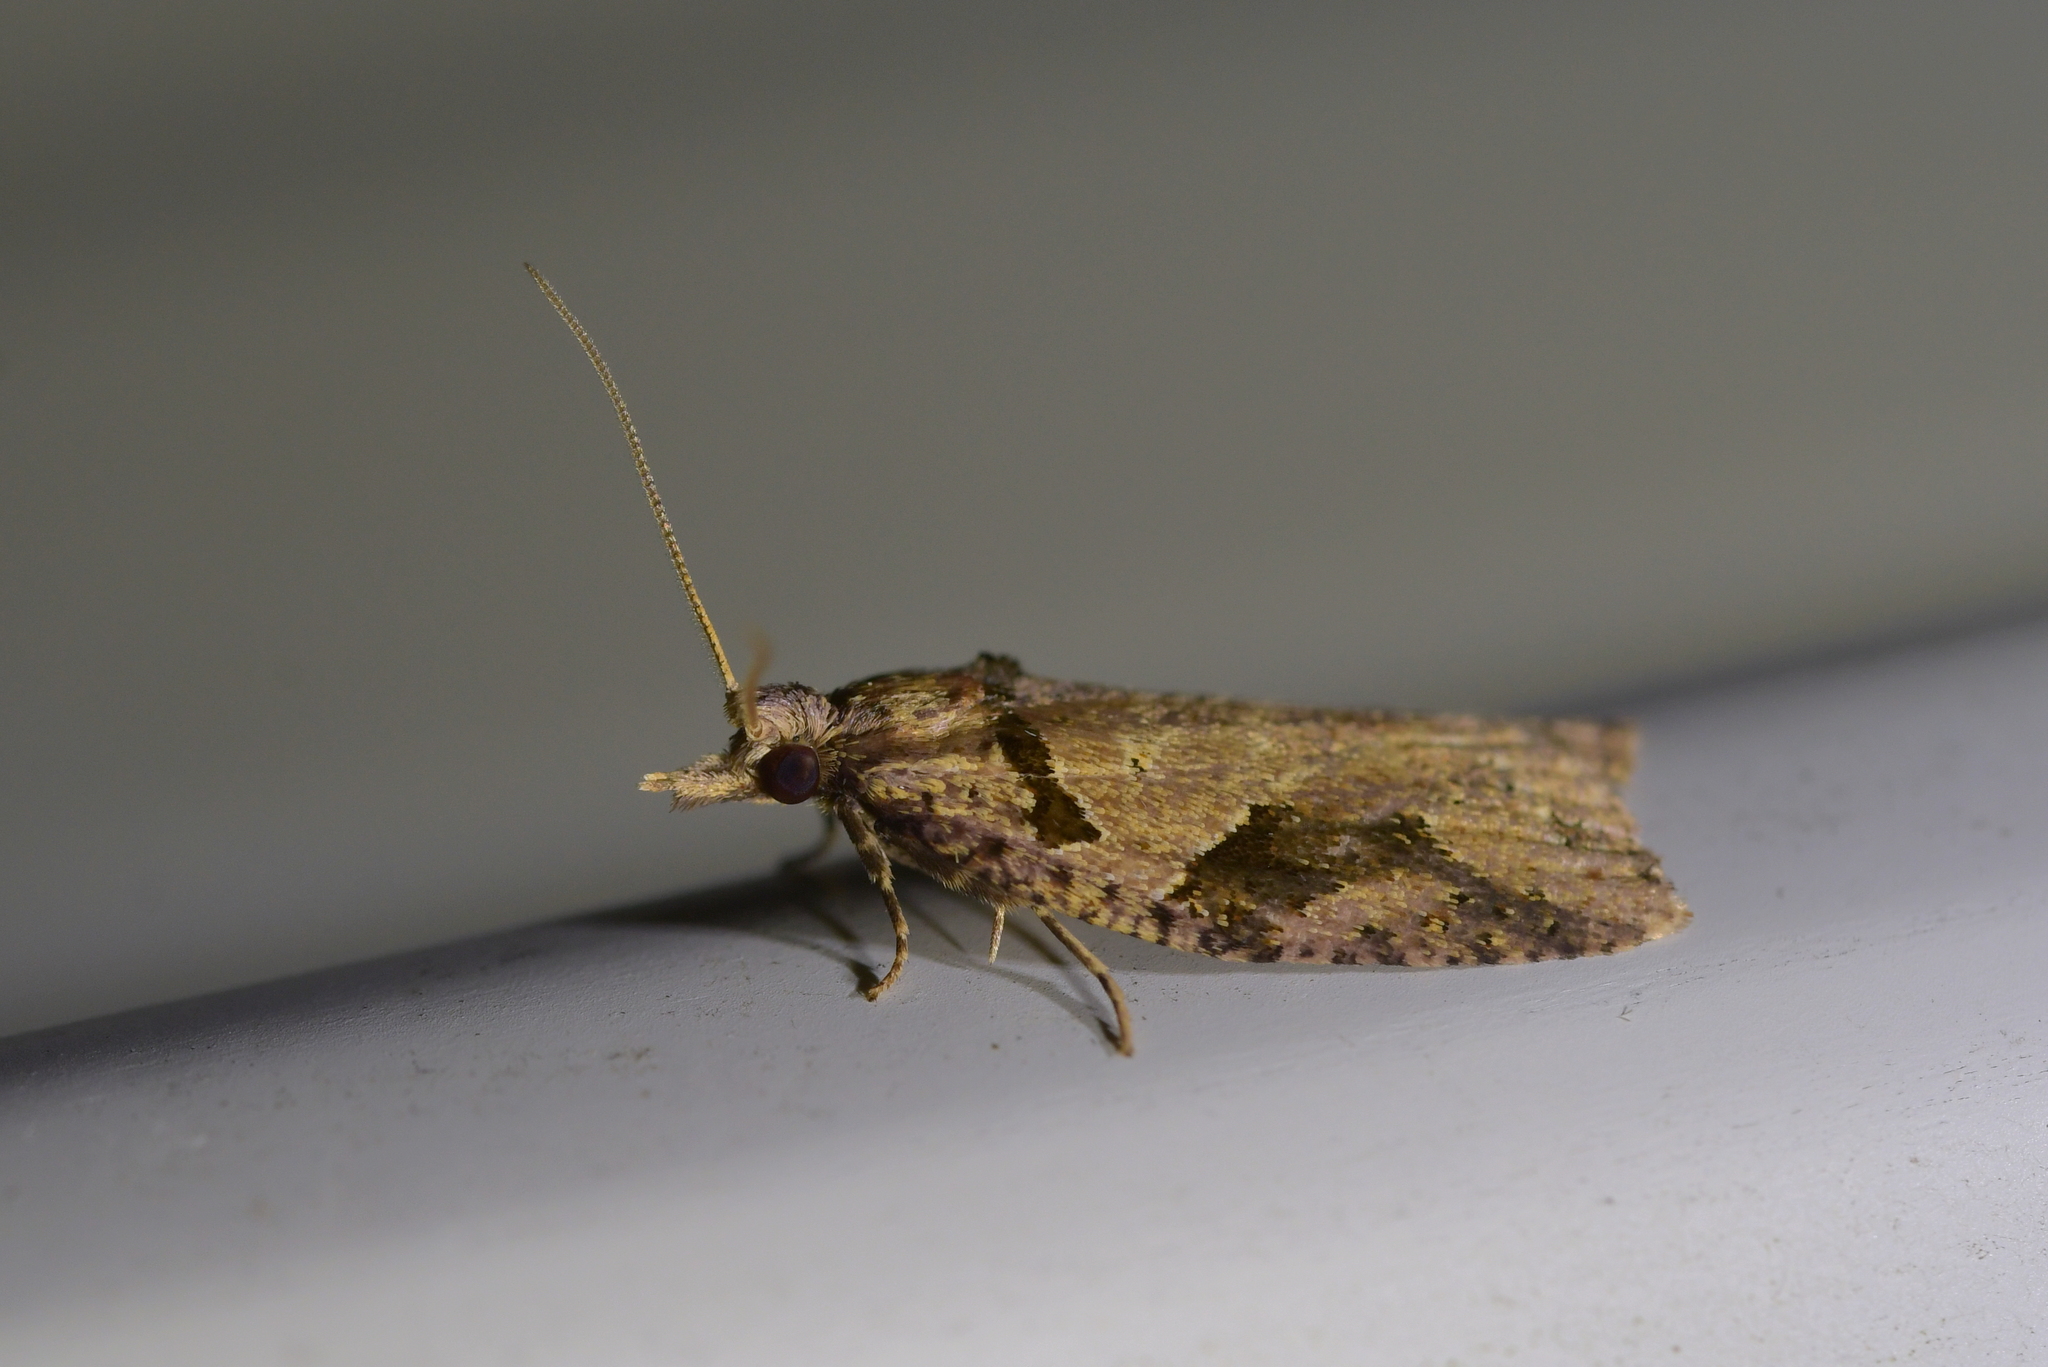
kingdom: Animalia
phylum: Arthropoda
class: Insecta
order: Lepidoptera
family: Tortricidae
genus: Ctenopseustis
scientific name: Ctenopseustis obliquana
